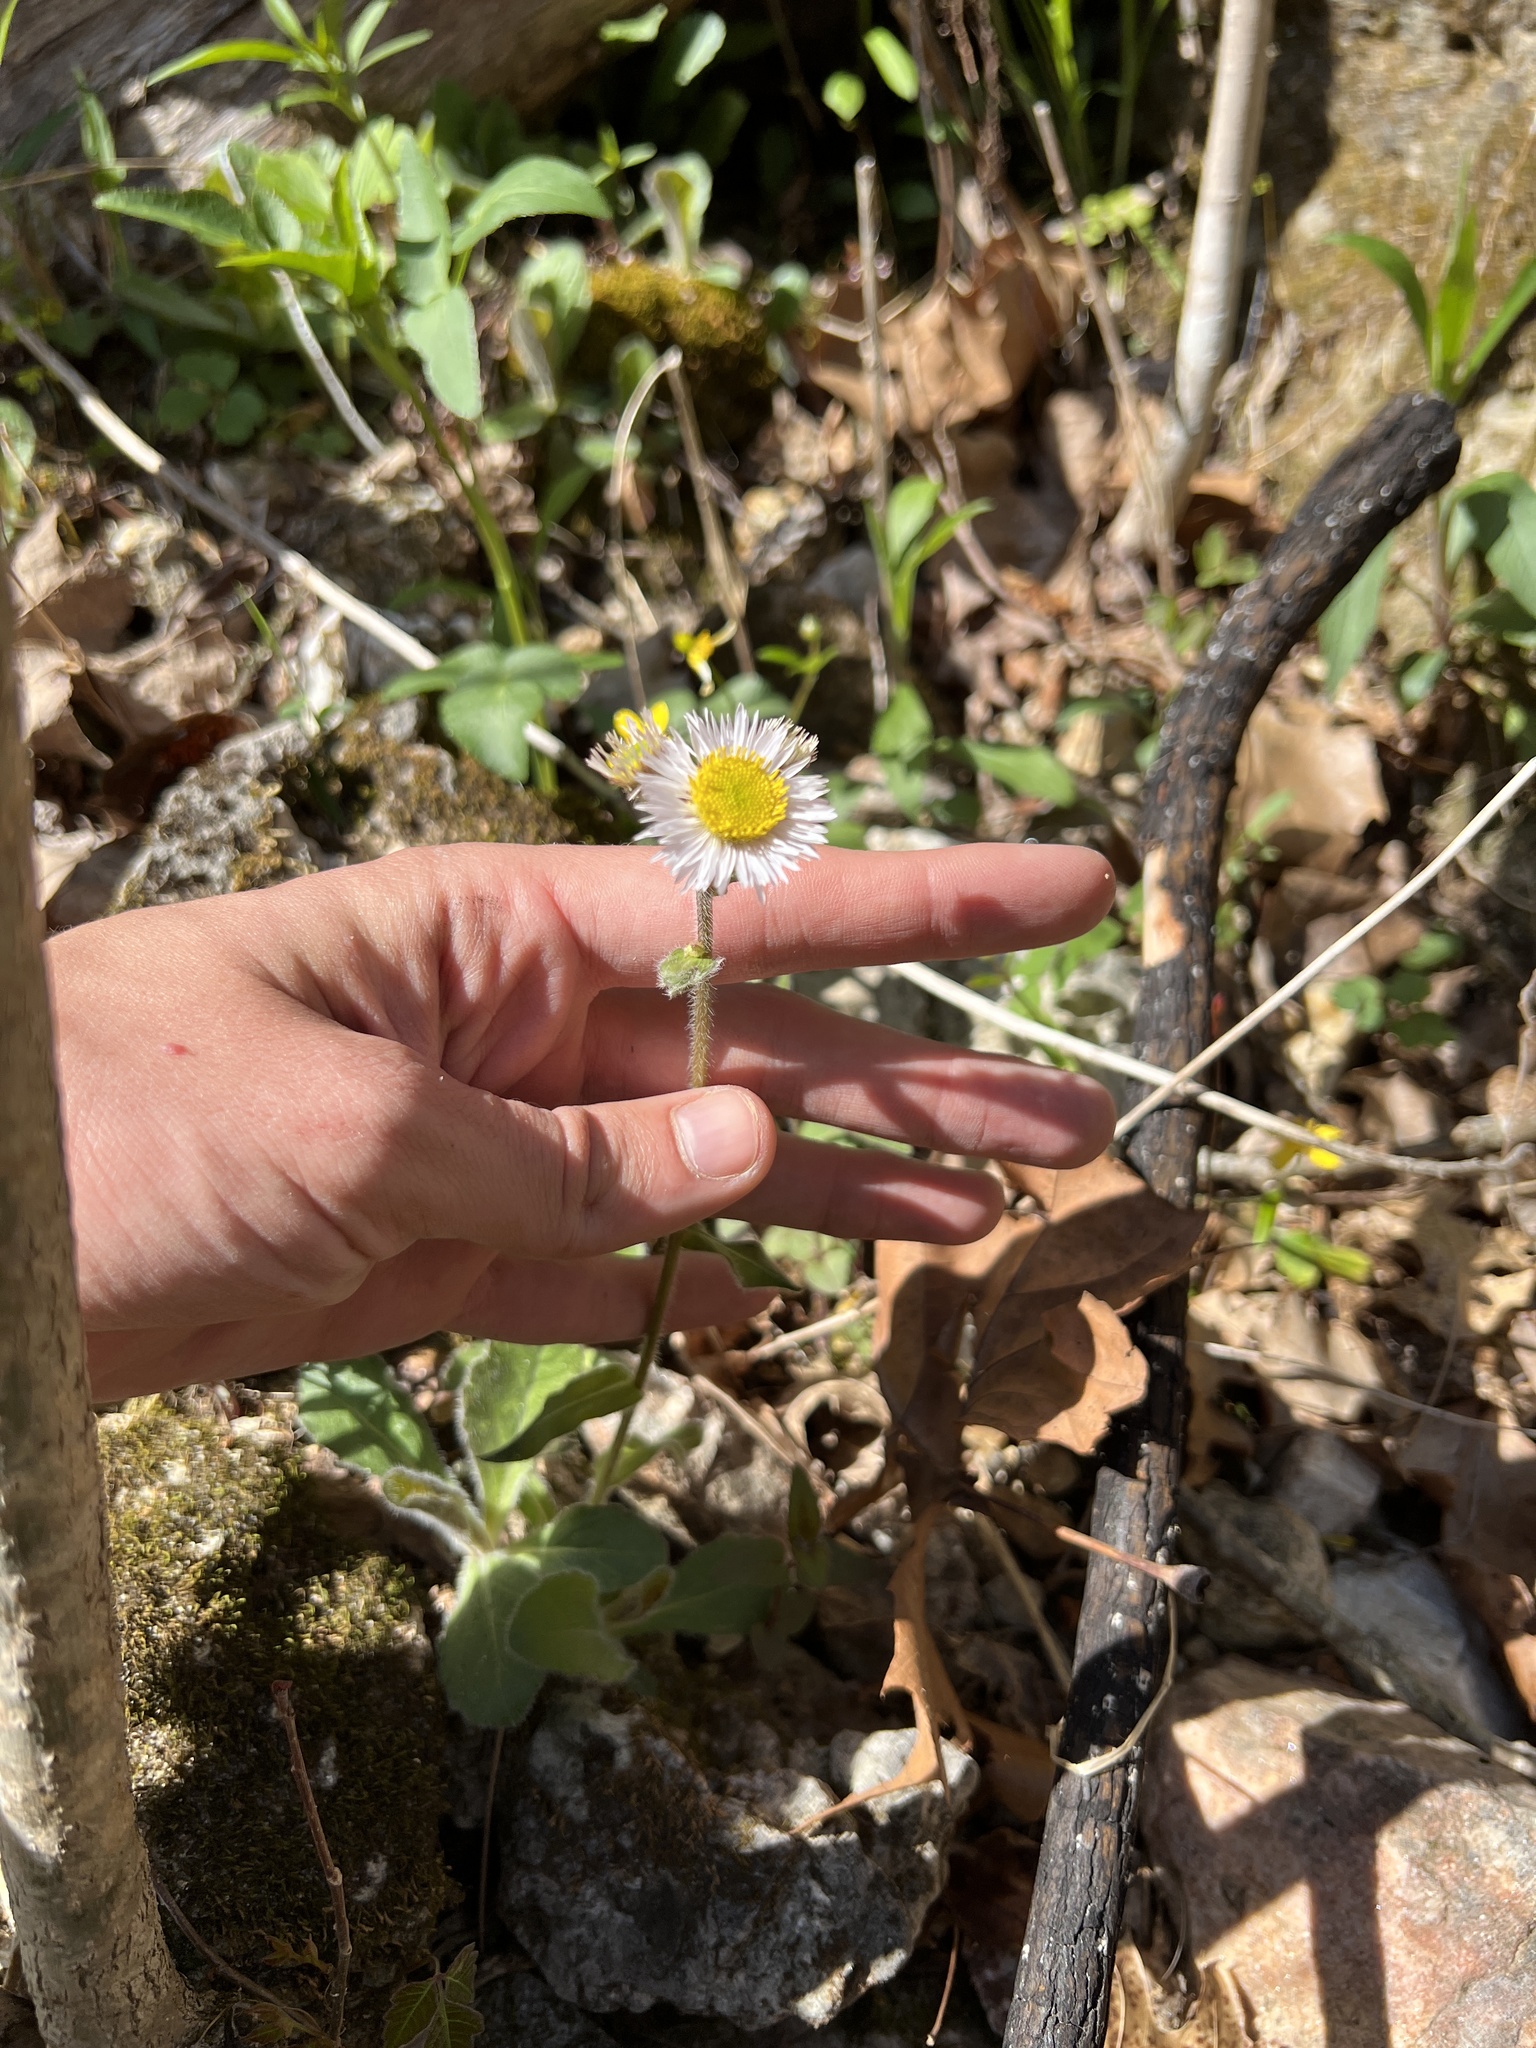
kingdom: Plantae
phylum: Tracheophyta
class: Magnoliopsida
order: Asterales
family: Asteraceae
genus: Erigeron
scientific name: Erigeron pulchellus
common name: Hairy fleabane
